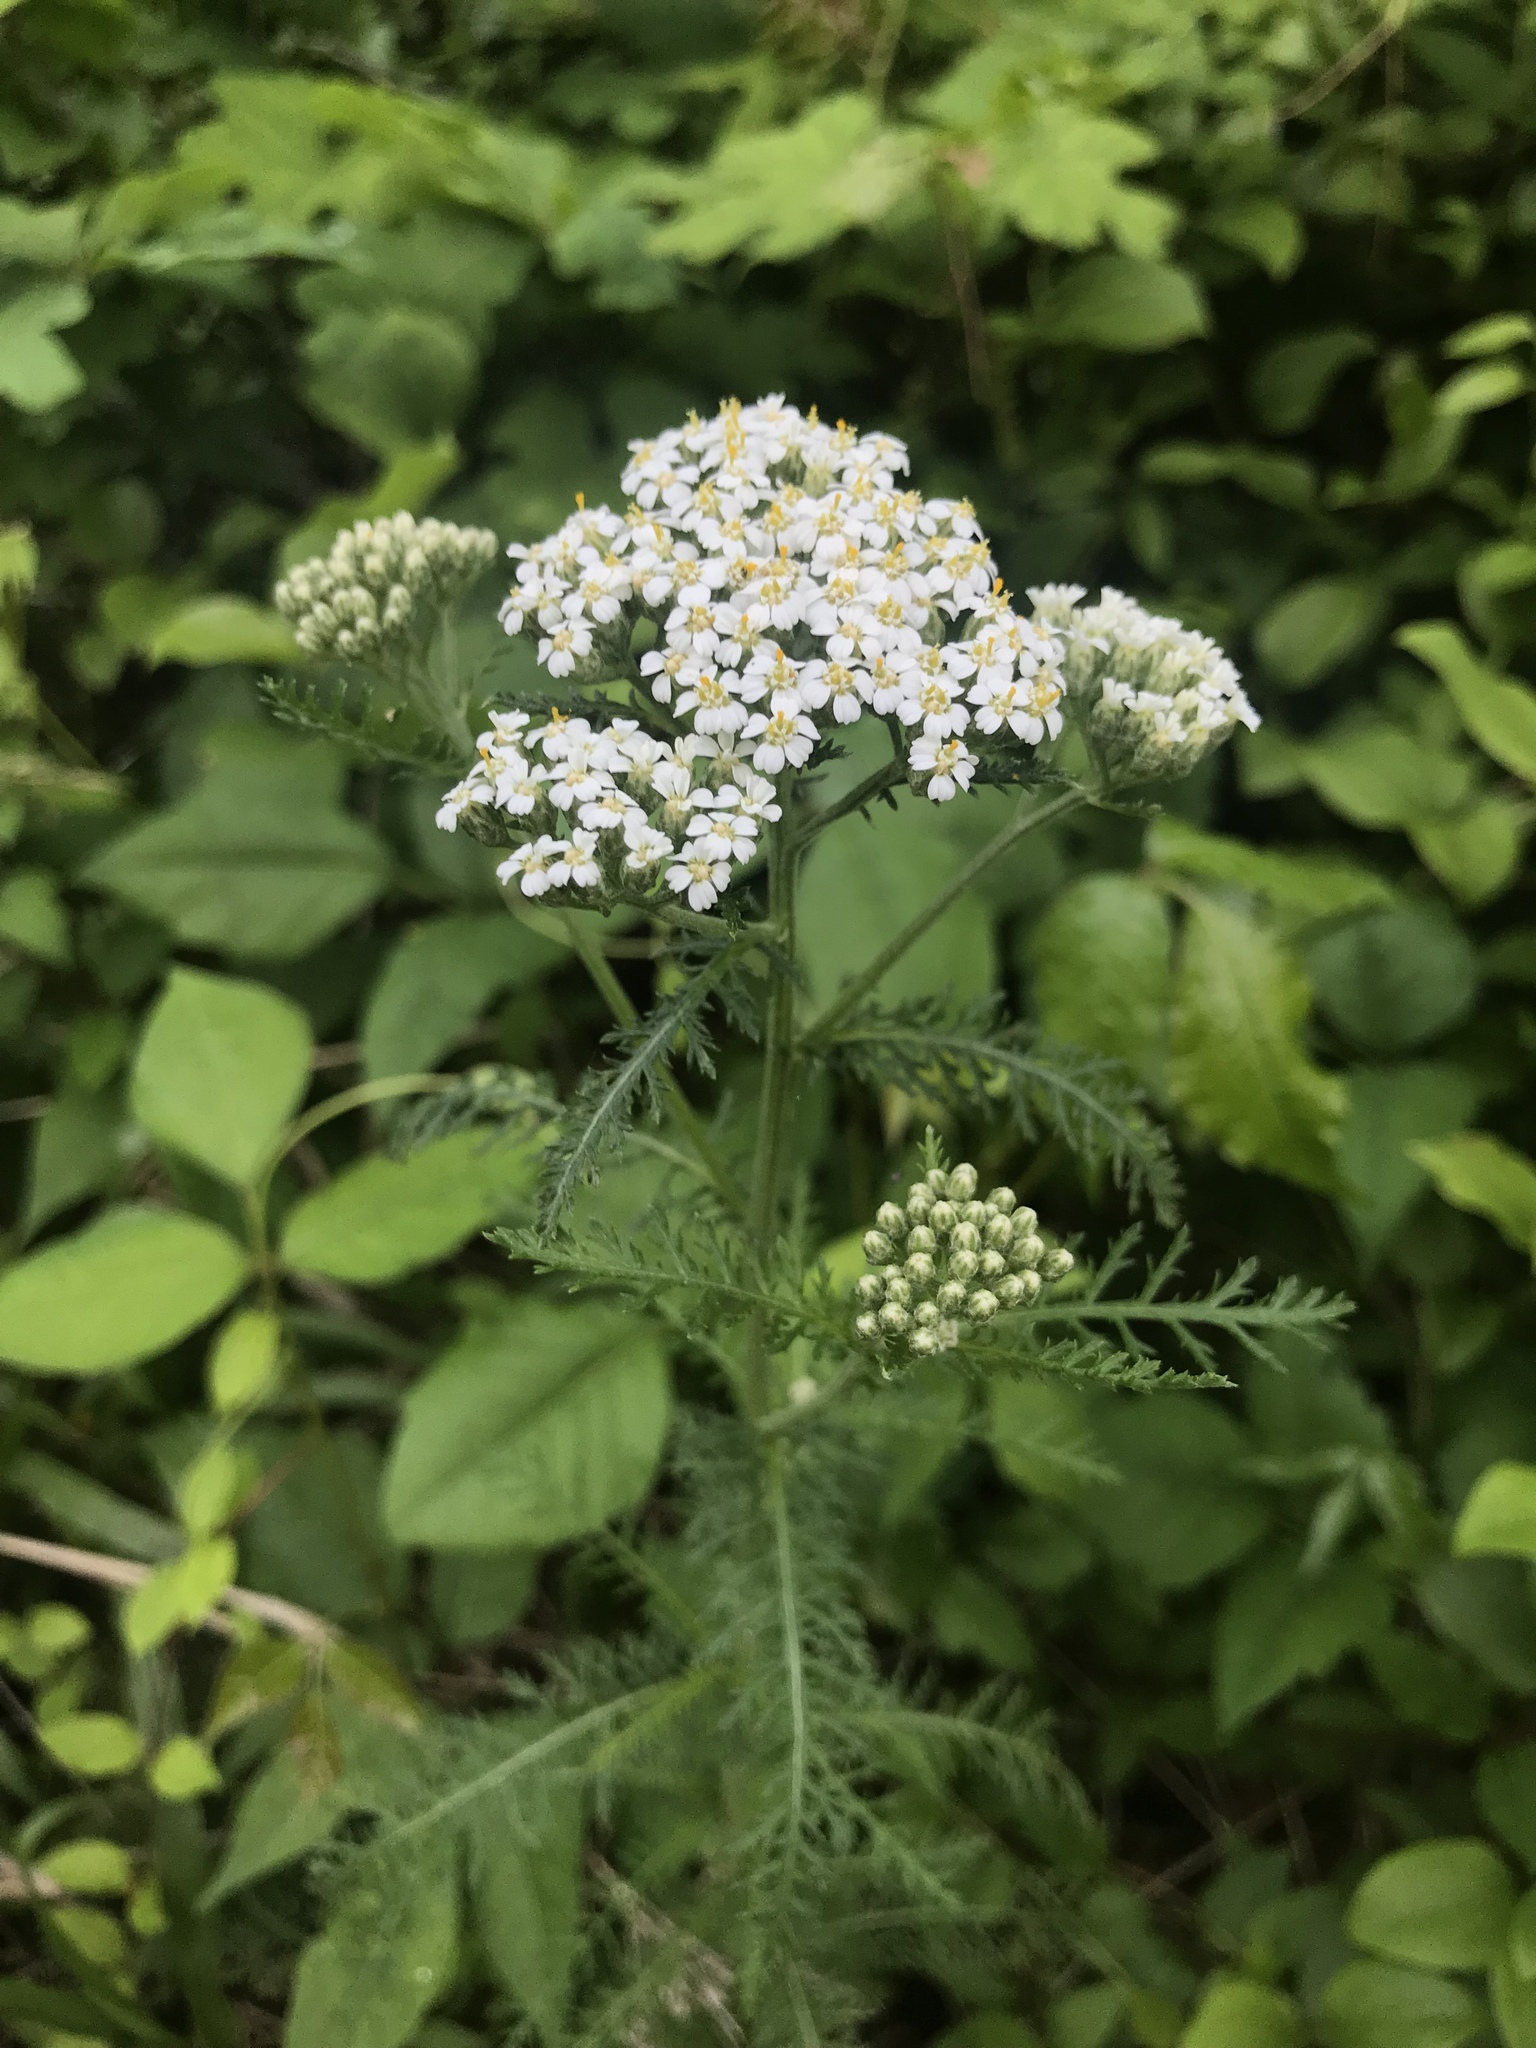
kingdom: Plantae
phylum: Tracheophyta
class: Magnoliopsida
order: Asterales
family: Asteraceae
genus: Achillea
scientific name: Achillea millefolium
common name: Yarrow
